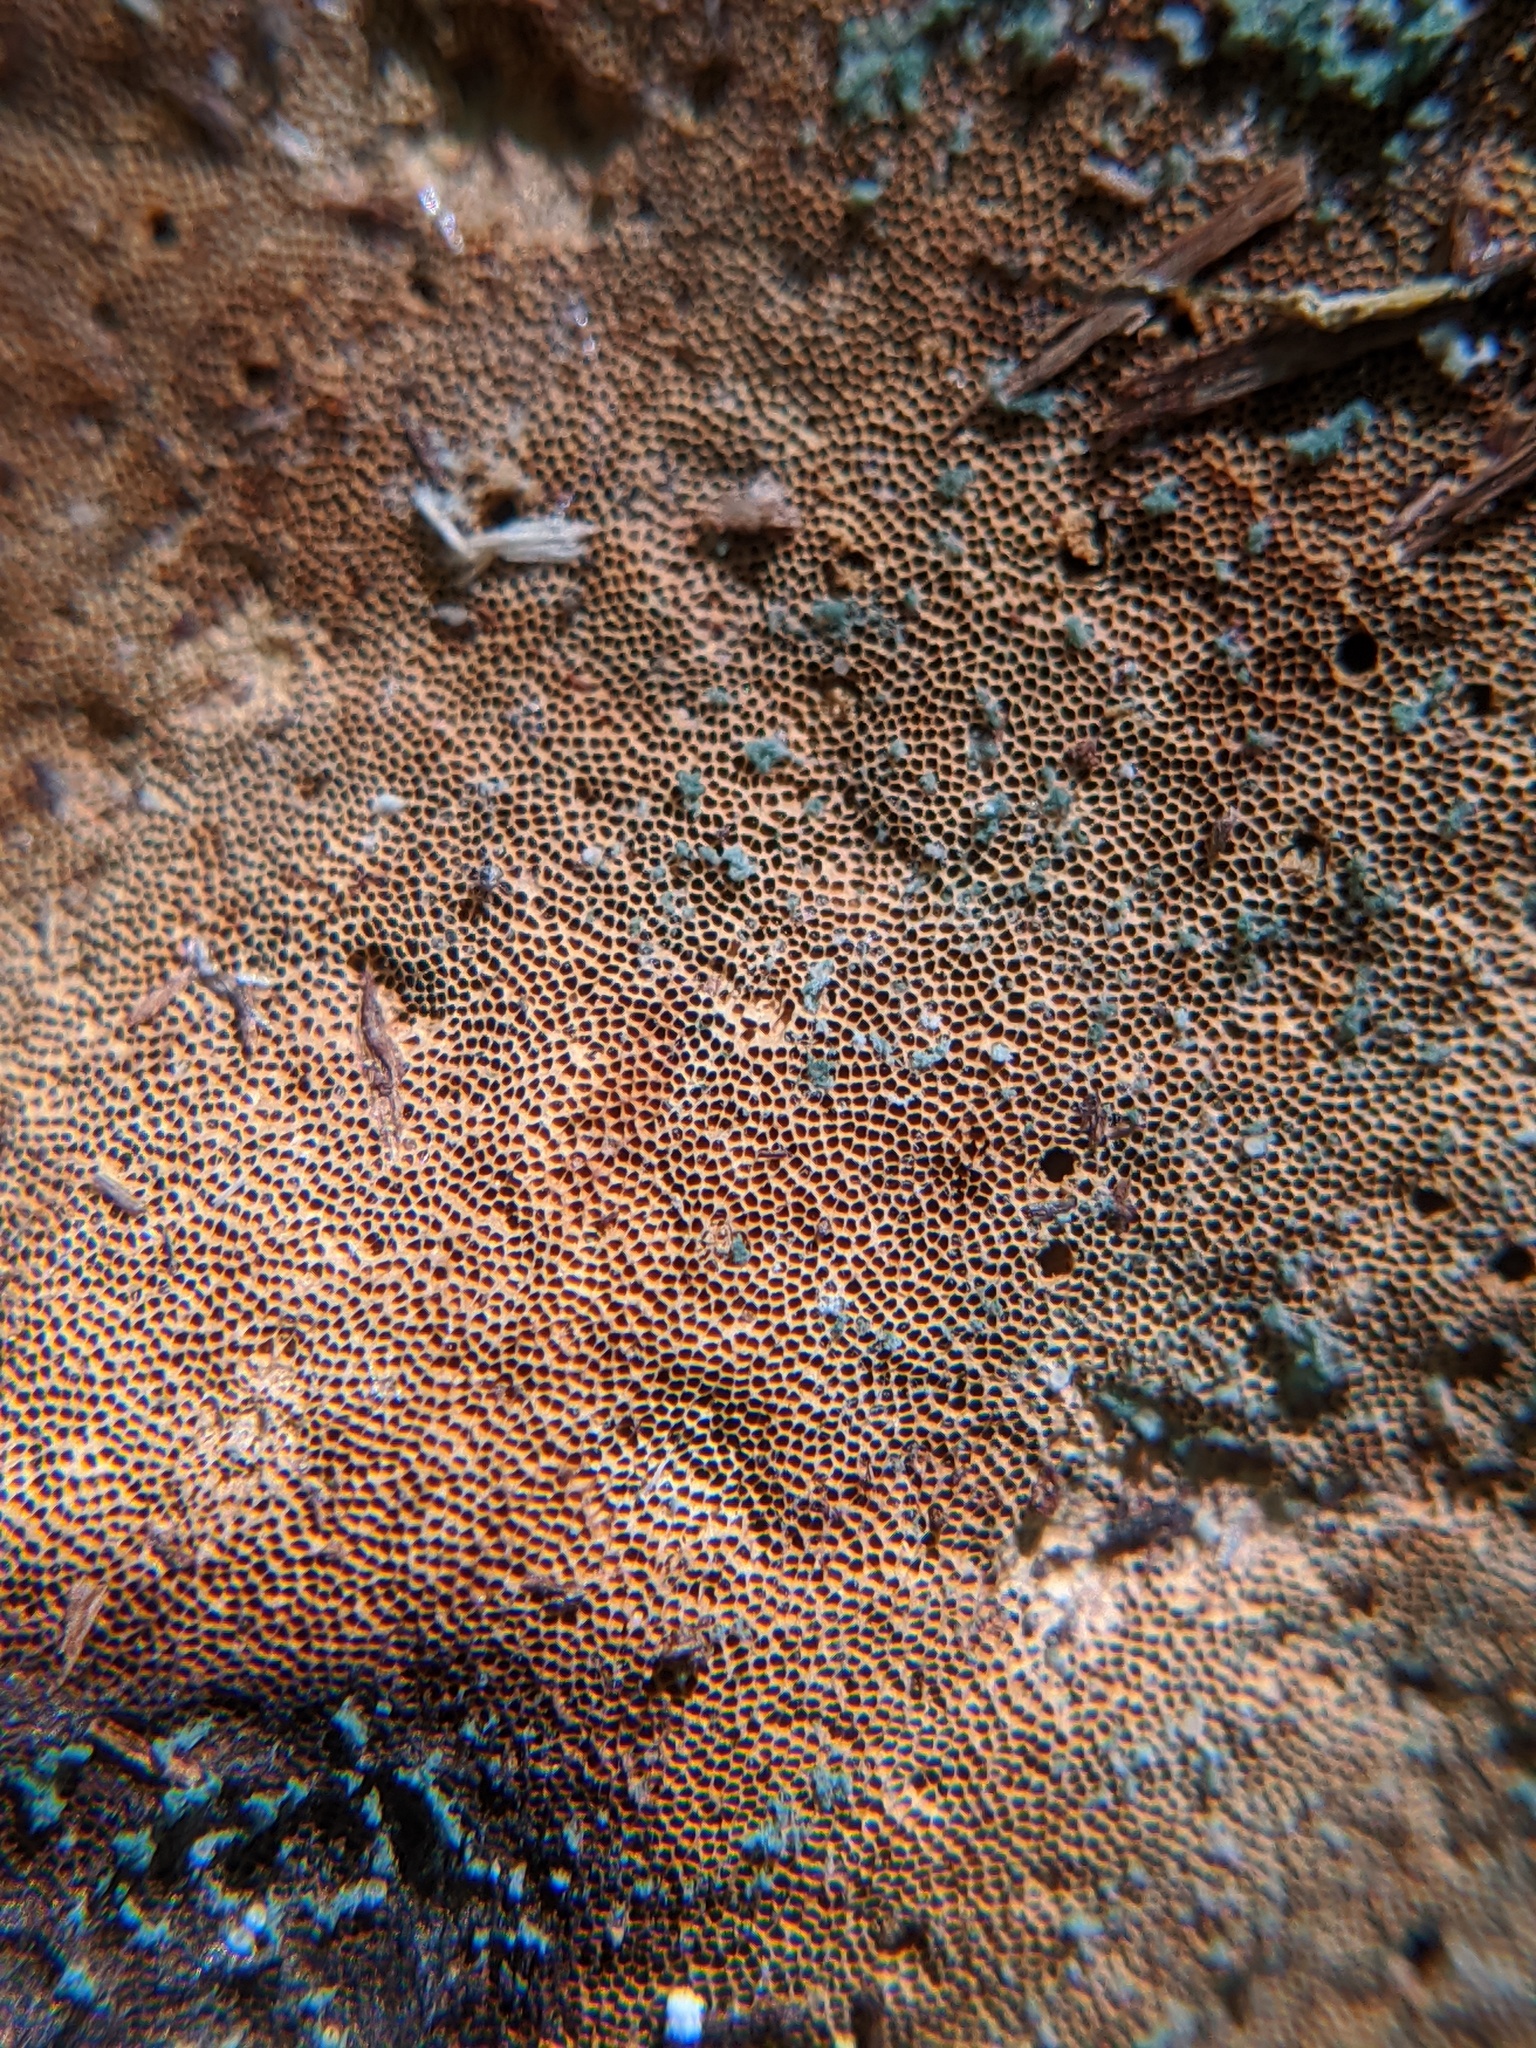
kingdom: Fungi
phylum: Basidiomycota
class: Agaricomycetes
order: Polyporales
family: Polyporaceae
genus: Cerioporus
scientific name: Cerioporus leptocephalus
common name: Blackfoot polypore
